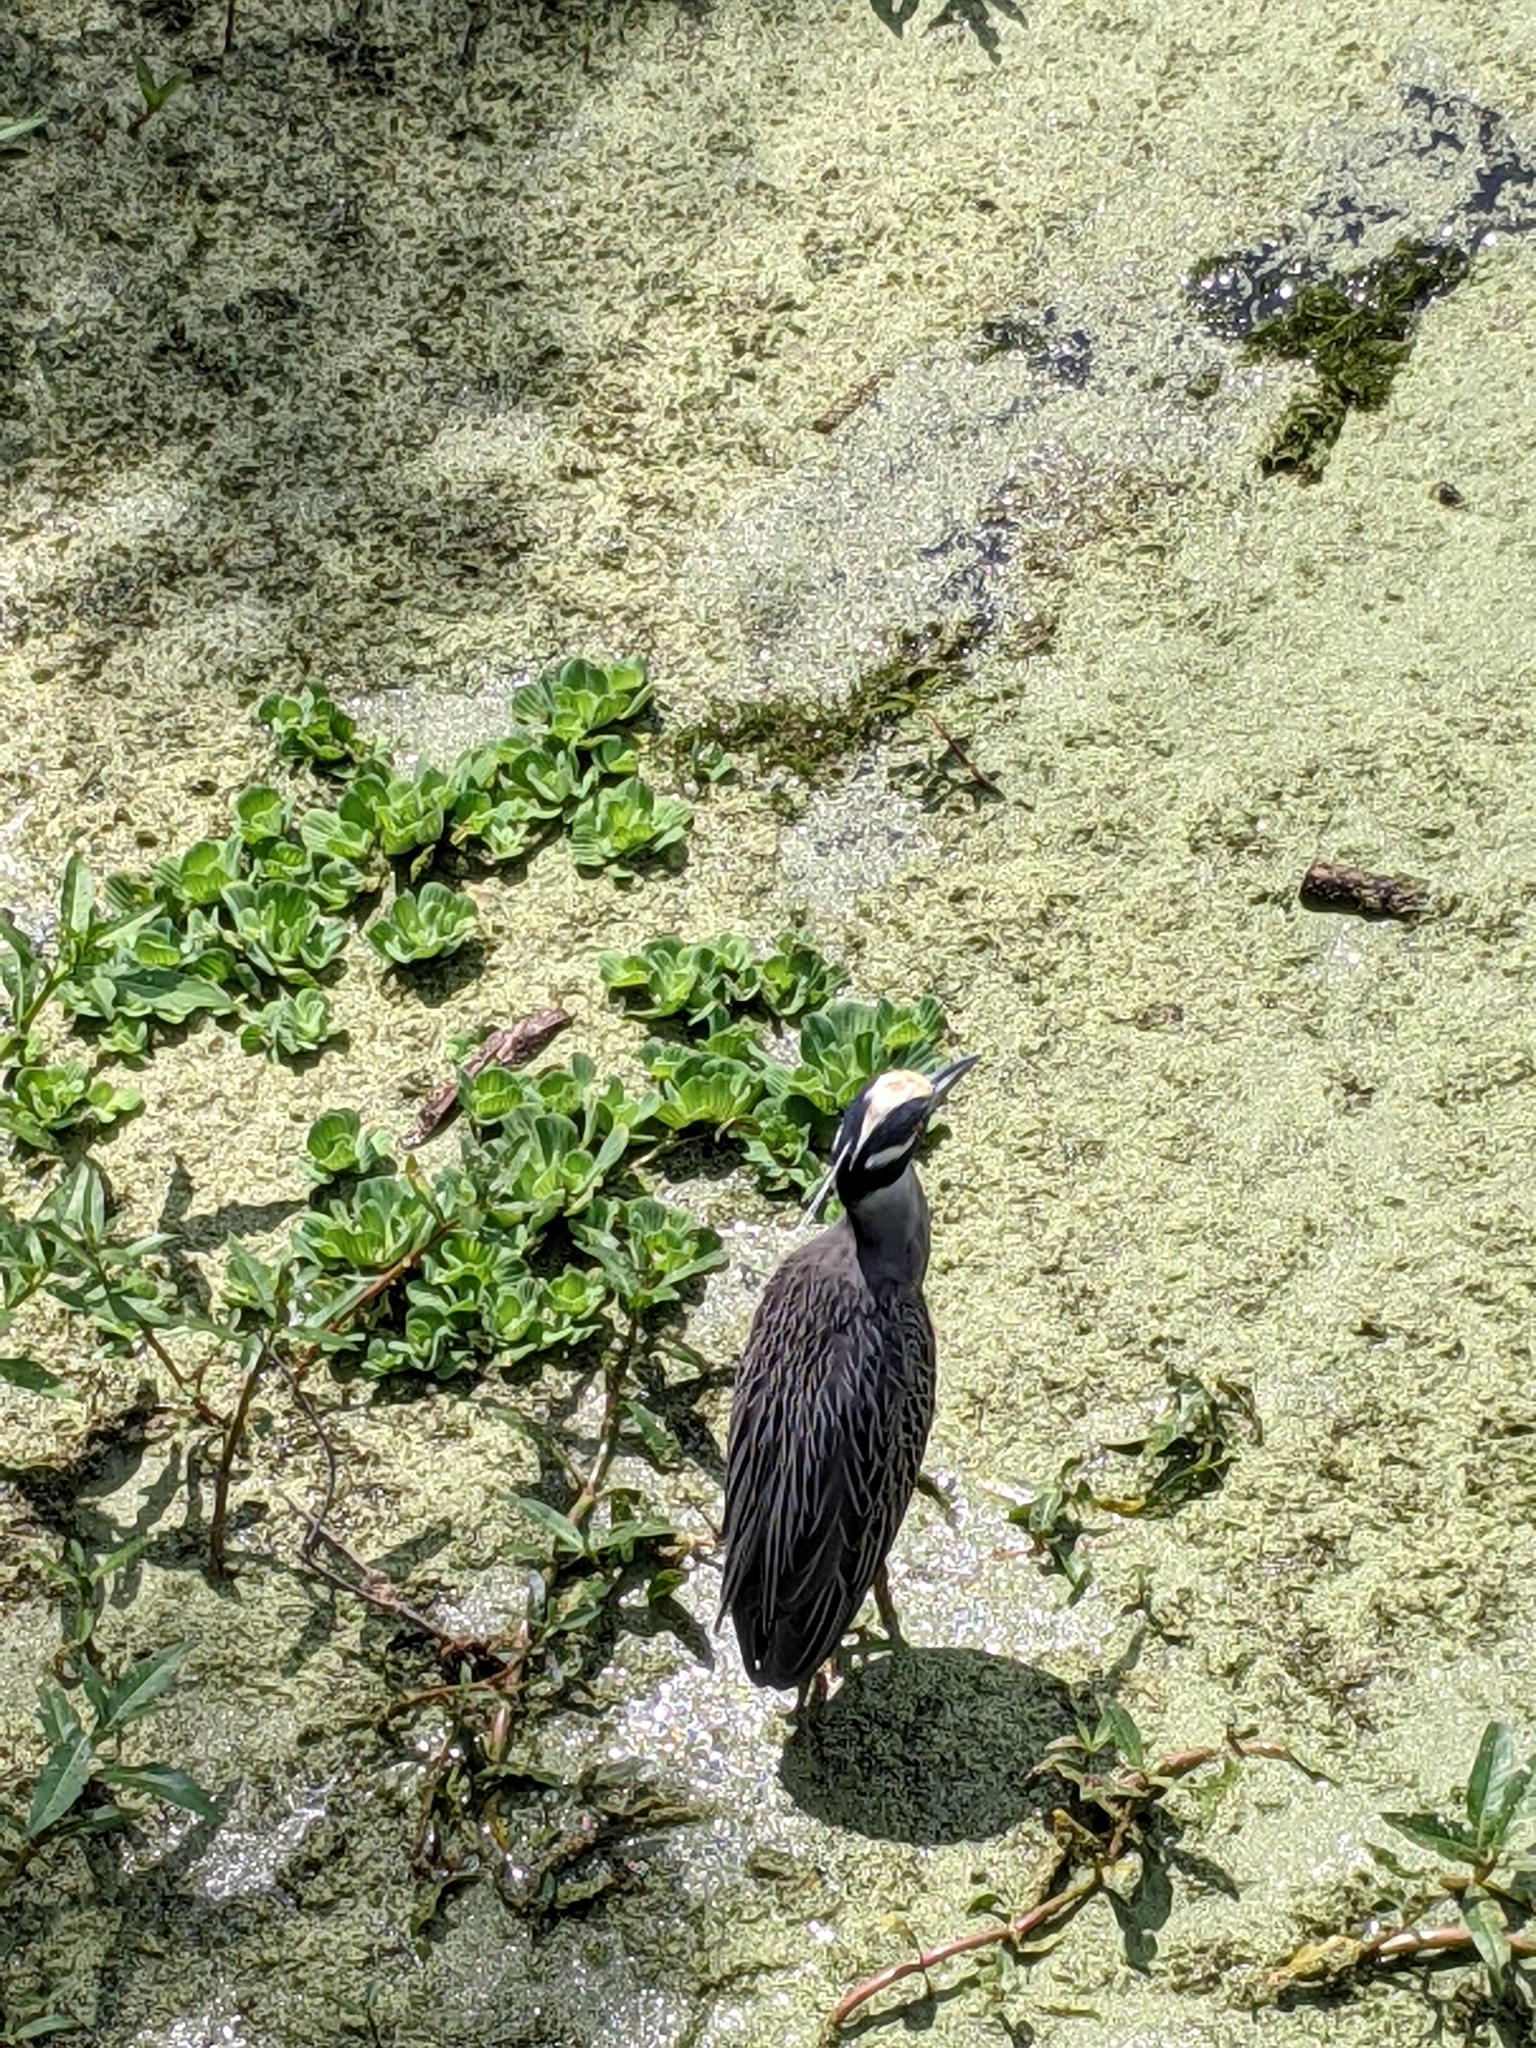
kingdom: Animalia
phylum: Chordata
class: Aves
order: Pelecaniformes
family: Ardeidae
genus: Nyctanassa
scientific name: Nyctanassa violacea
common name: Yellow-crowned night heron
